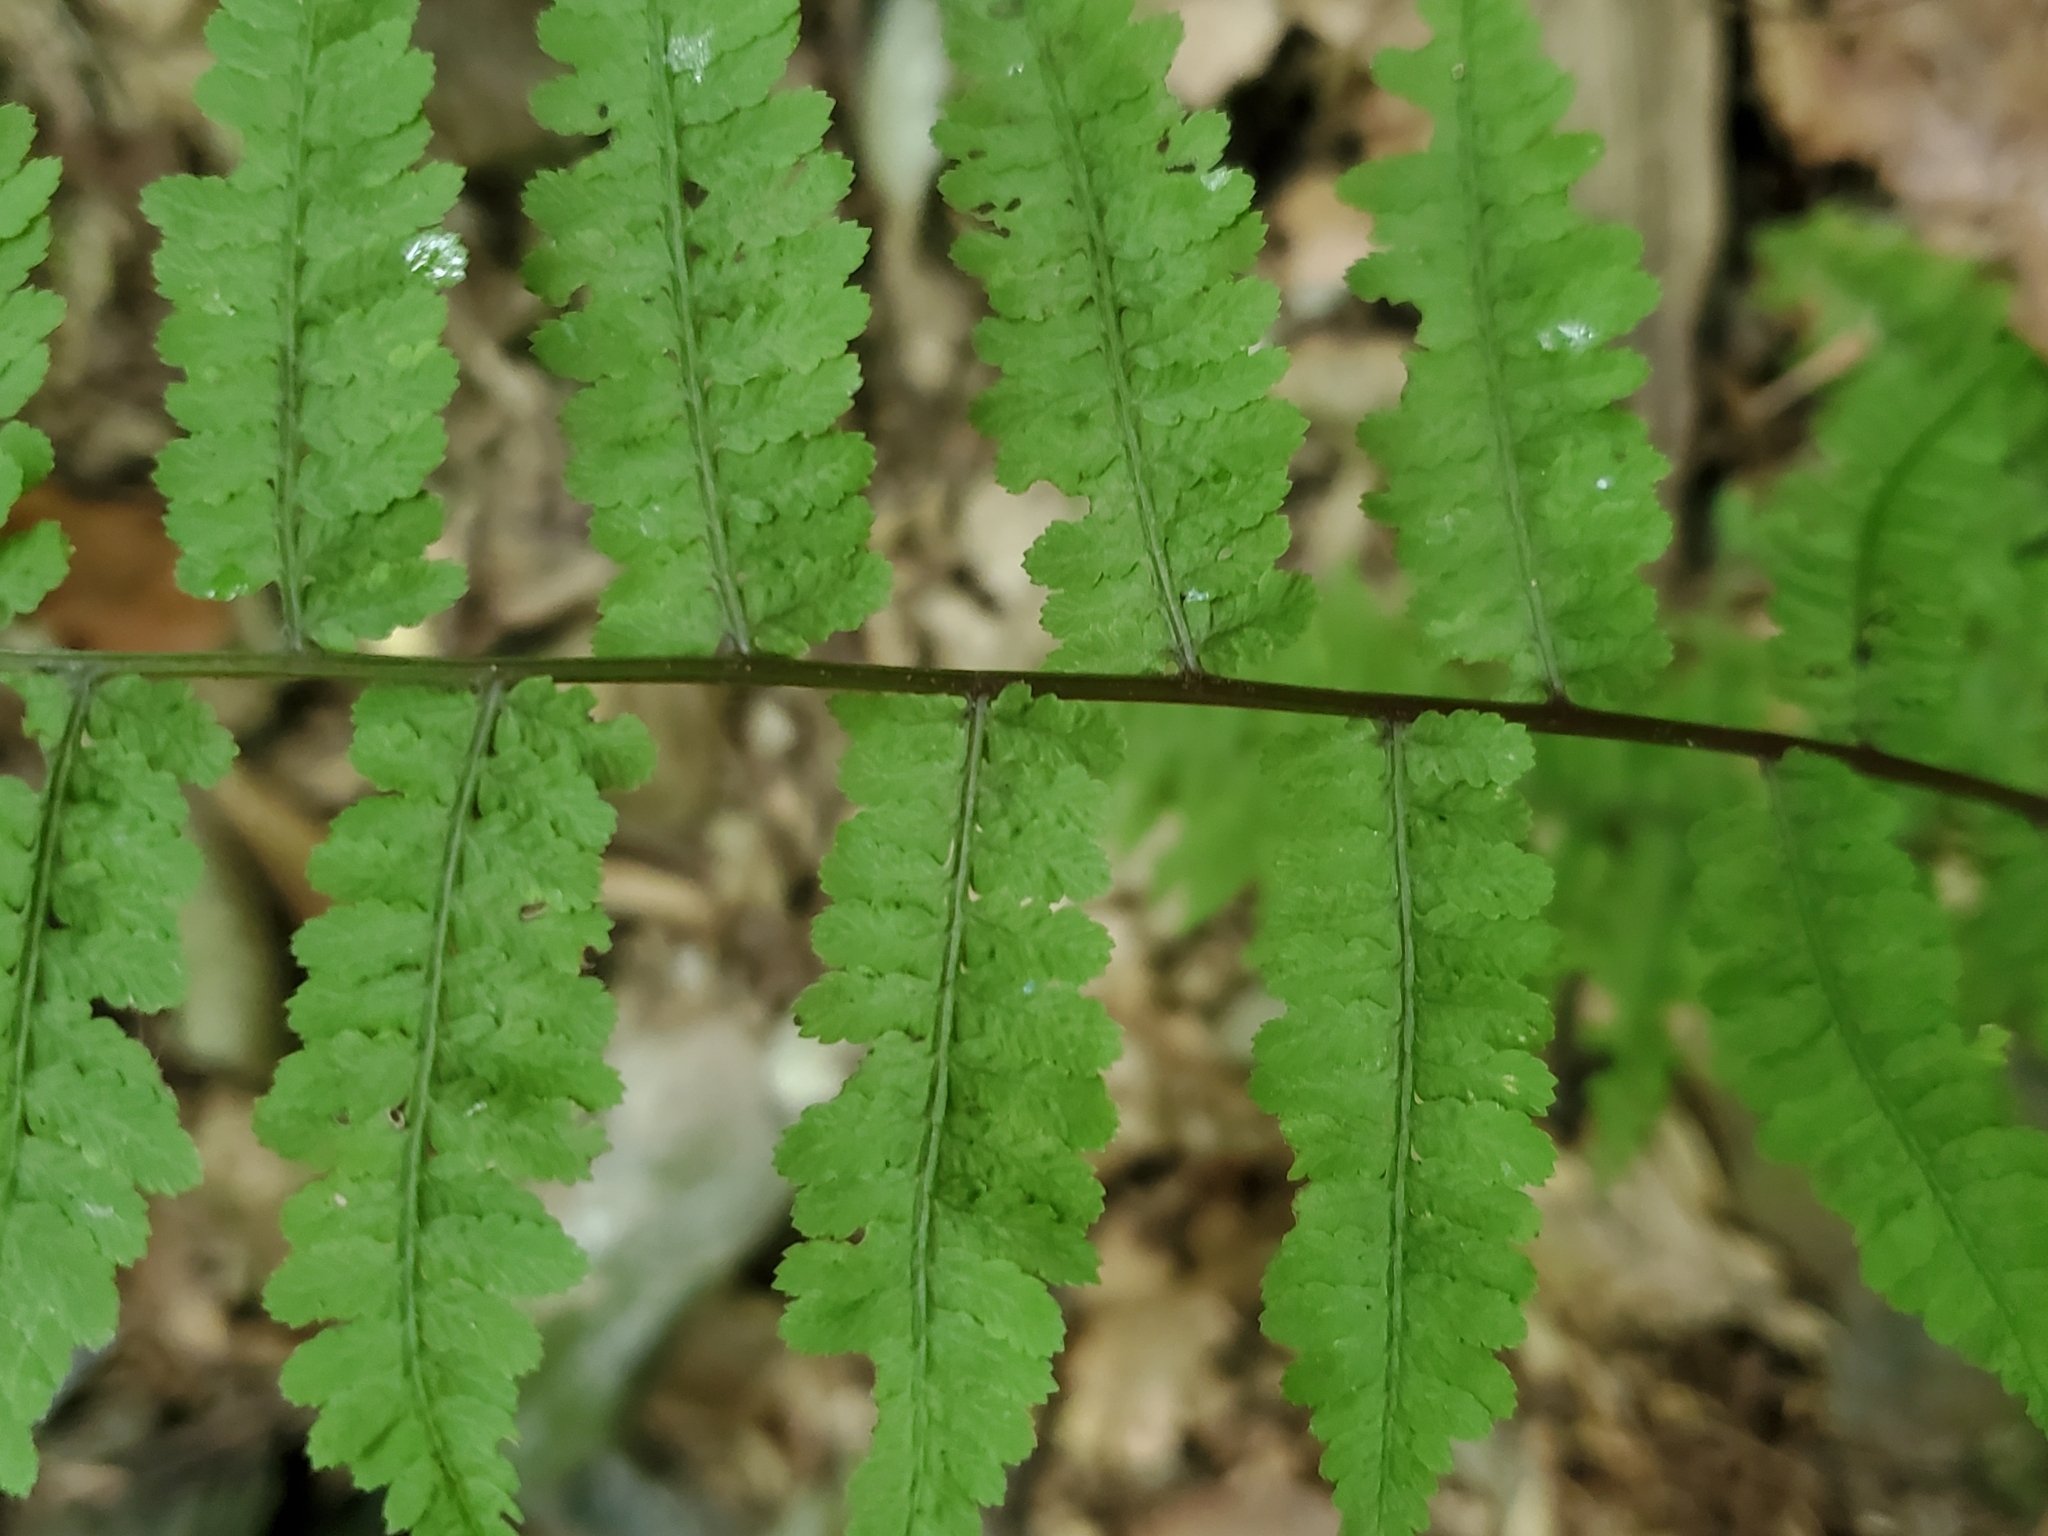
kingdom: Plantae
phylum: Tracheophyta
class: Polypodiopsida
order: Polypodiales
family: Athyriaceae
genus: Athyrium
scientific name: Athyrium asplenioides
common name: Southern lady fern
